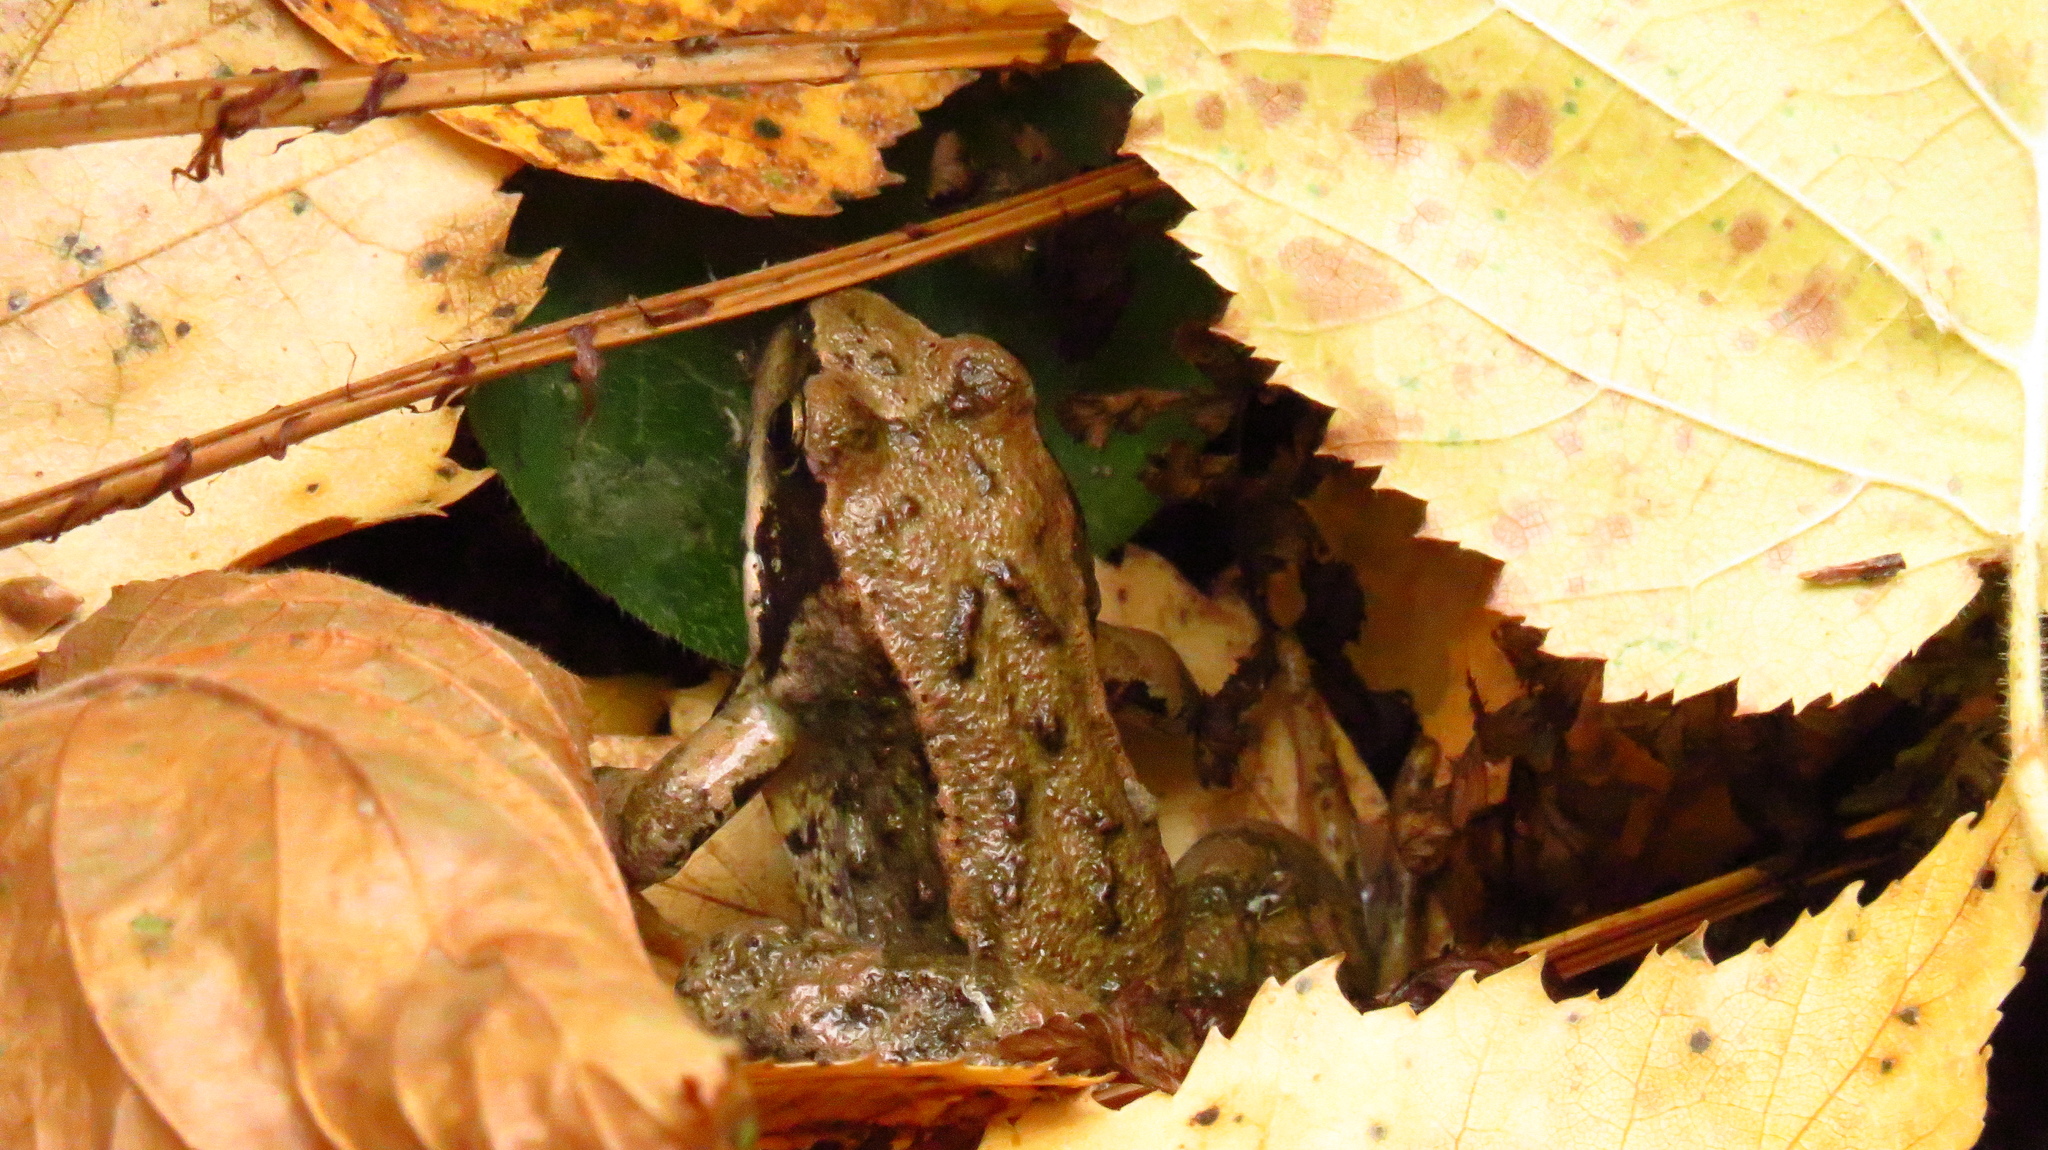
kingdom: Animalia
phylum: Chordata
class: Amphibia
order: Anura
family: Ranidae
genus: Rana
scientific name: Rana temporaria
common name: Common frog
